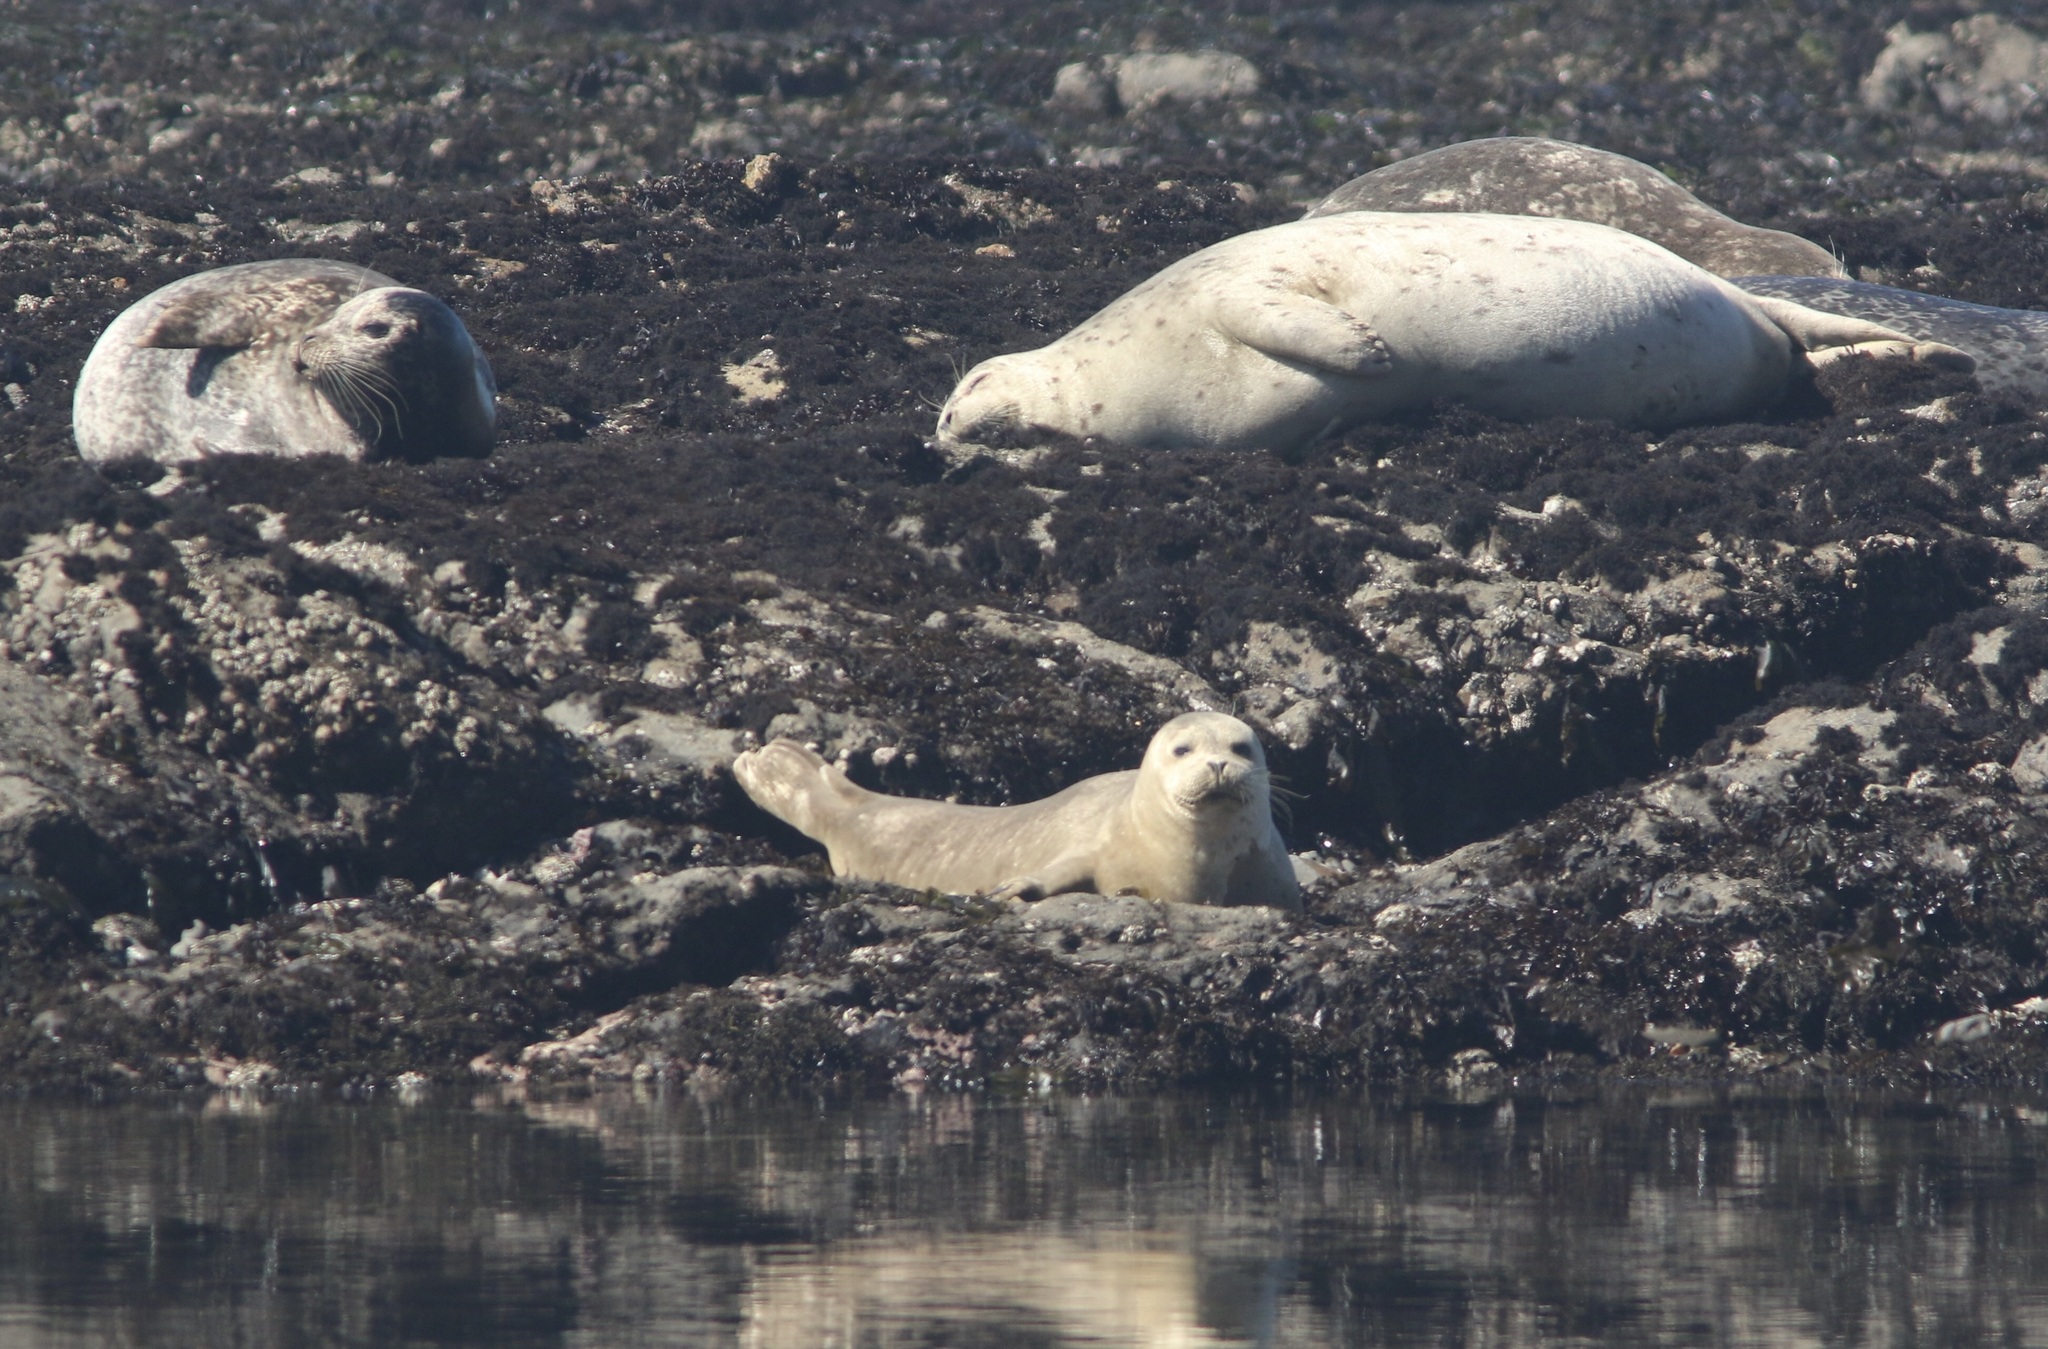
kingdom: Animalia
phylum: Chordata
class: Mammalia
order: Carnivora
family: Phocidae
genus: Phoca
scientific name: Phoca vitulina
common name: Harbor seal
